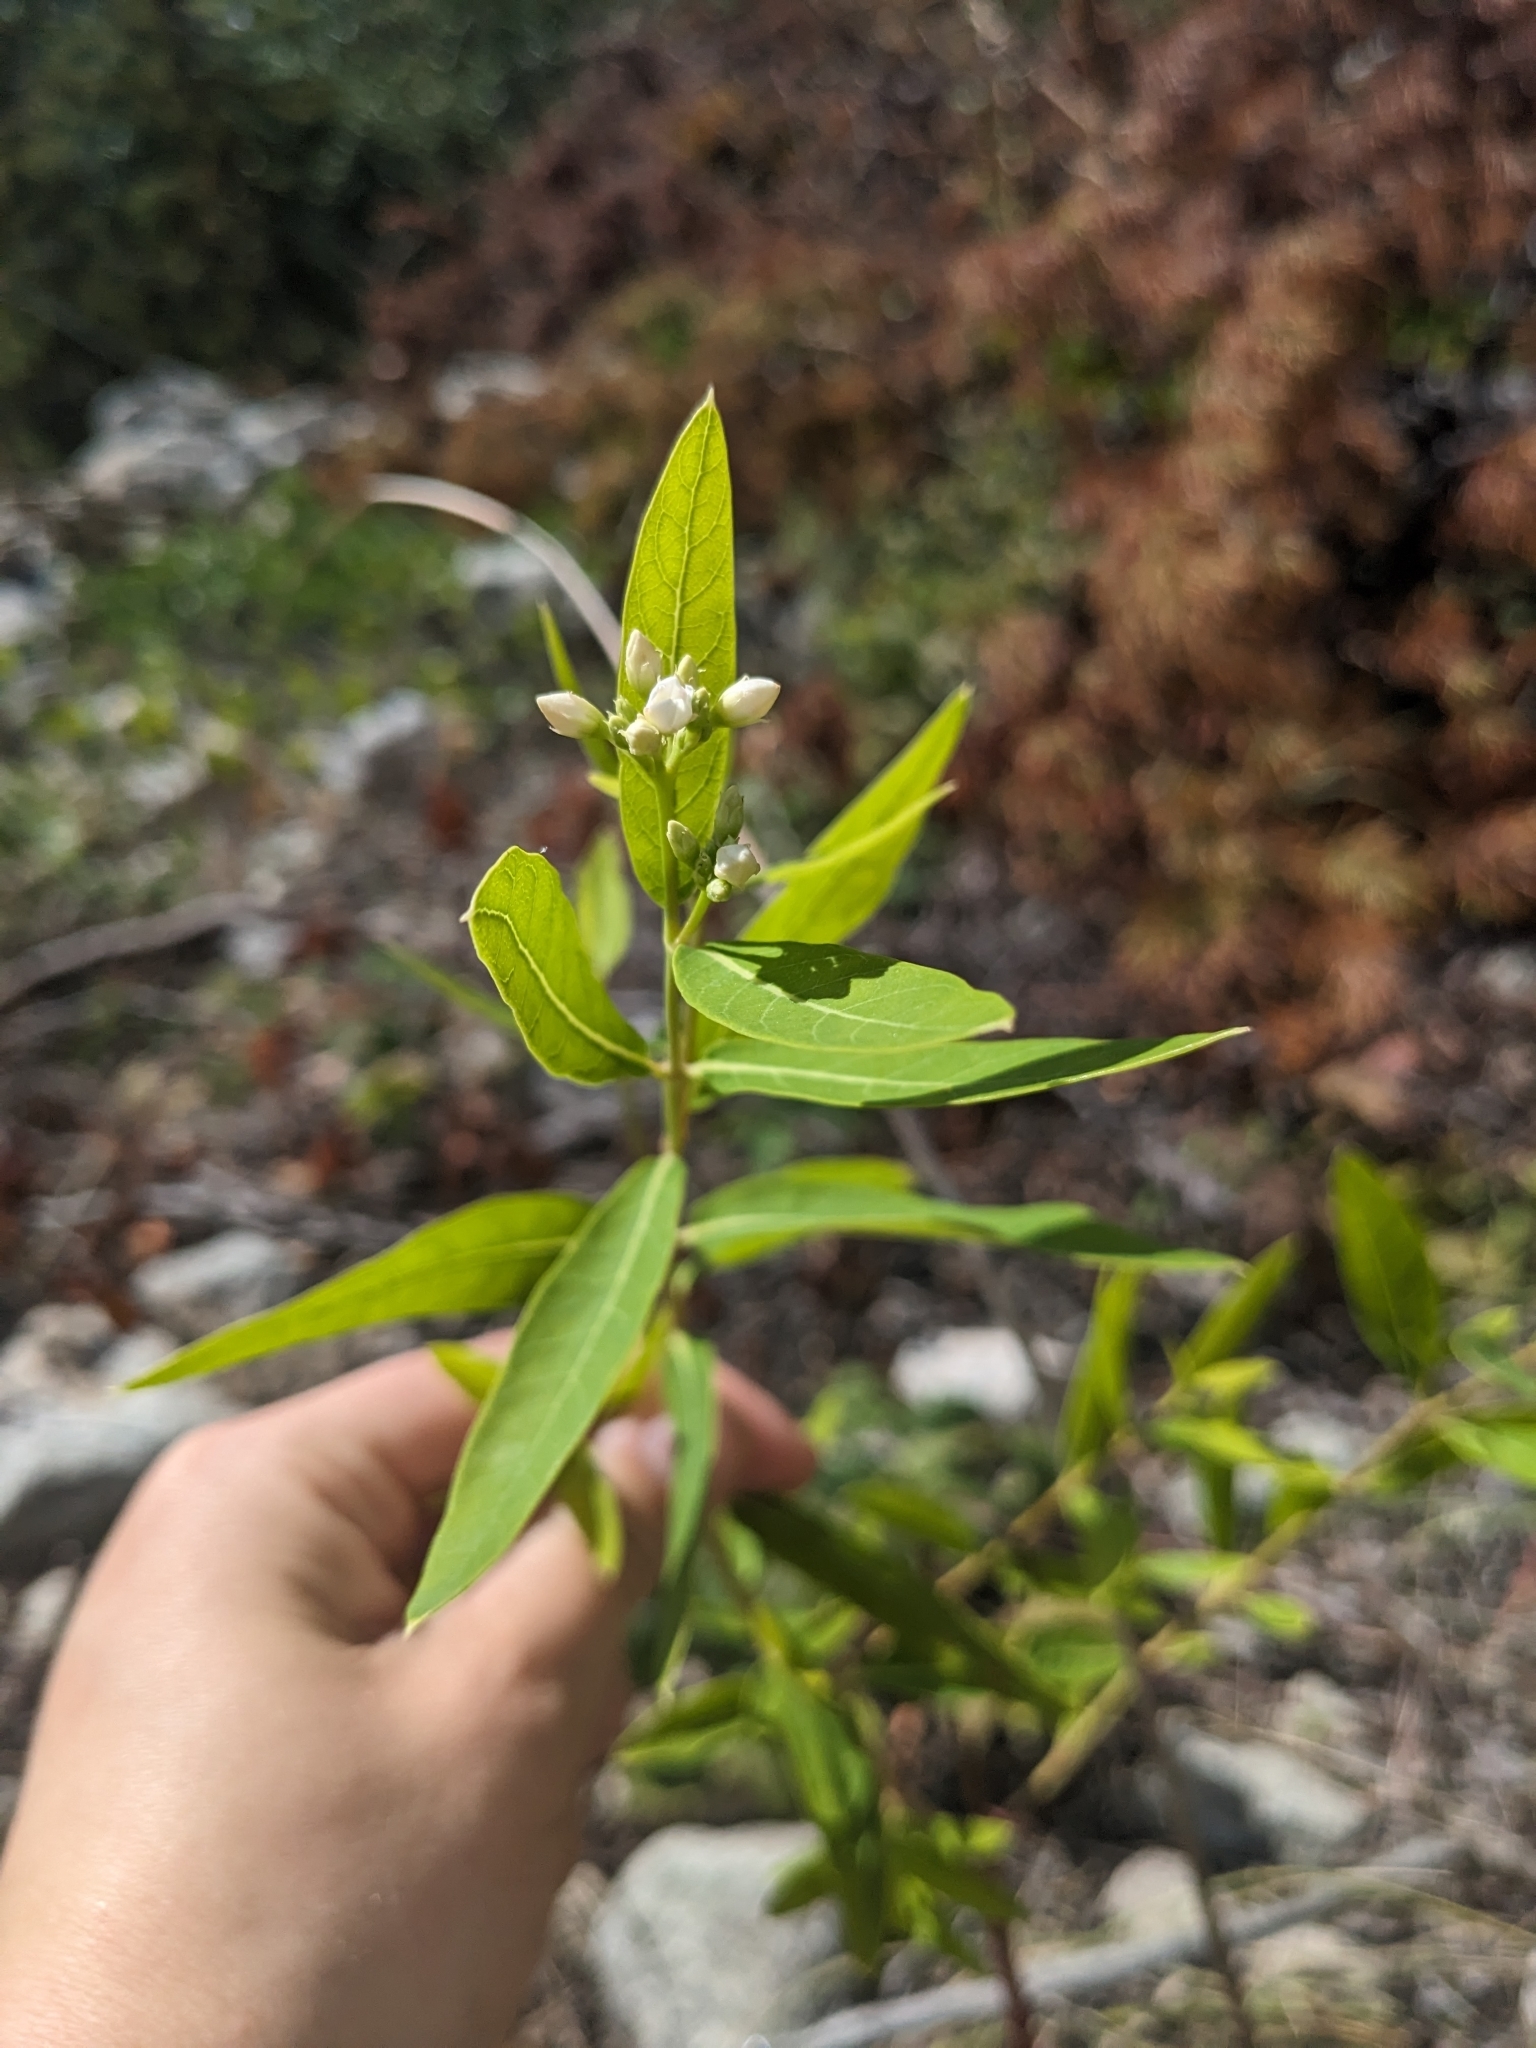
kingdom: Plantae
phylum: Tracheophyta
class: Magnoliopsida
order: Gentianales
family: Apocynaceae
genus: Apocynum
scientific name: Apocynum cannabinum
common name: Hemp dogbane
